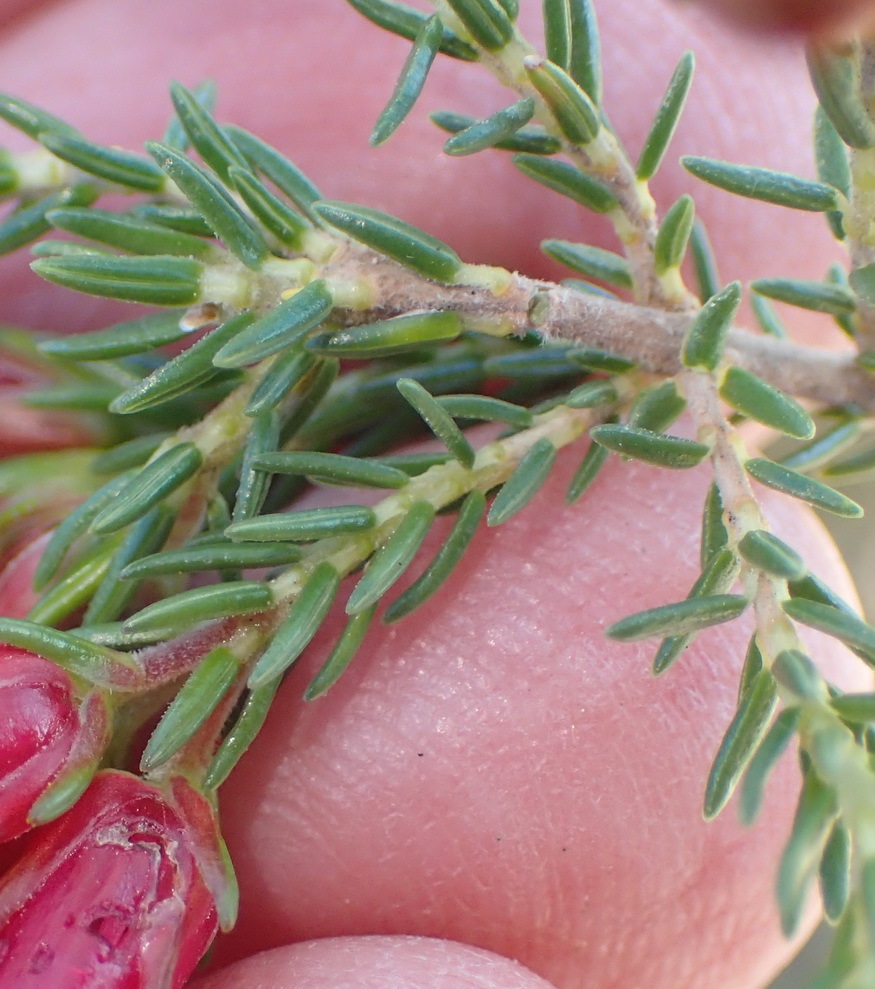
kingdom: Plantae
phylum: Tracheophyta
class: Magnoliopsida
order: Ericales
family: Ericaceae
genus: Erica
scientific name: Erica discolor
